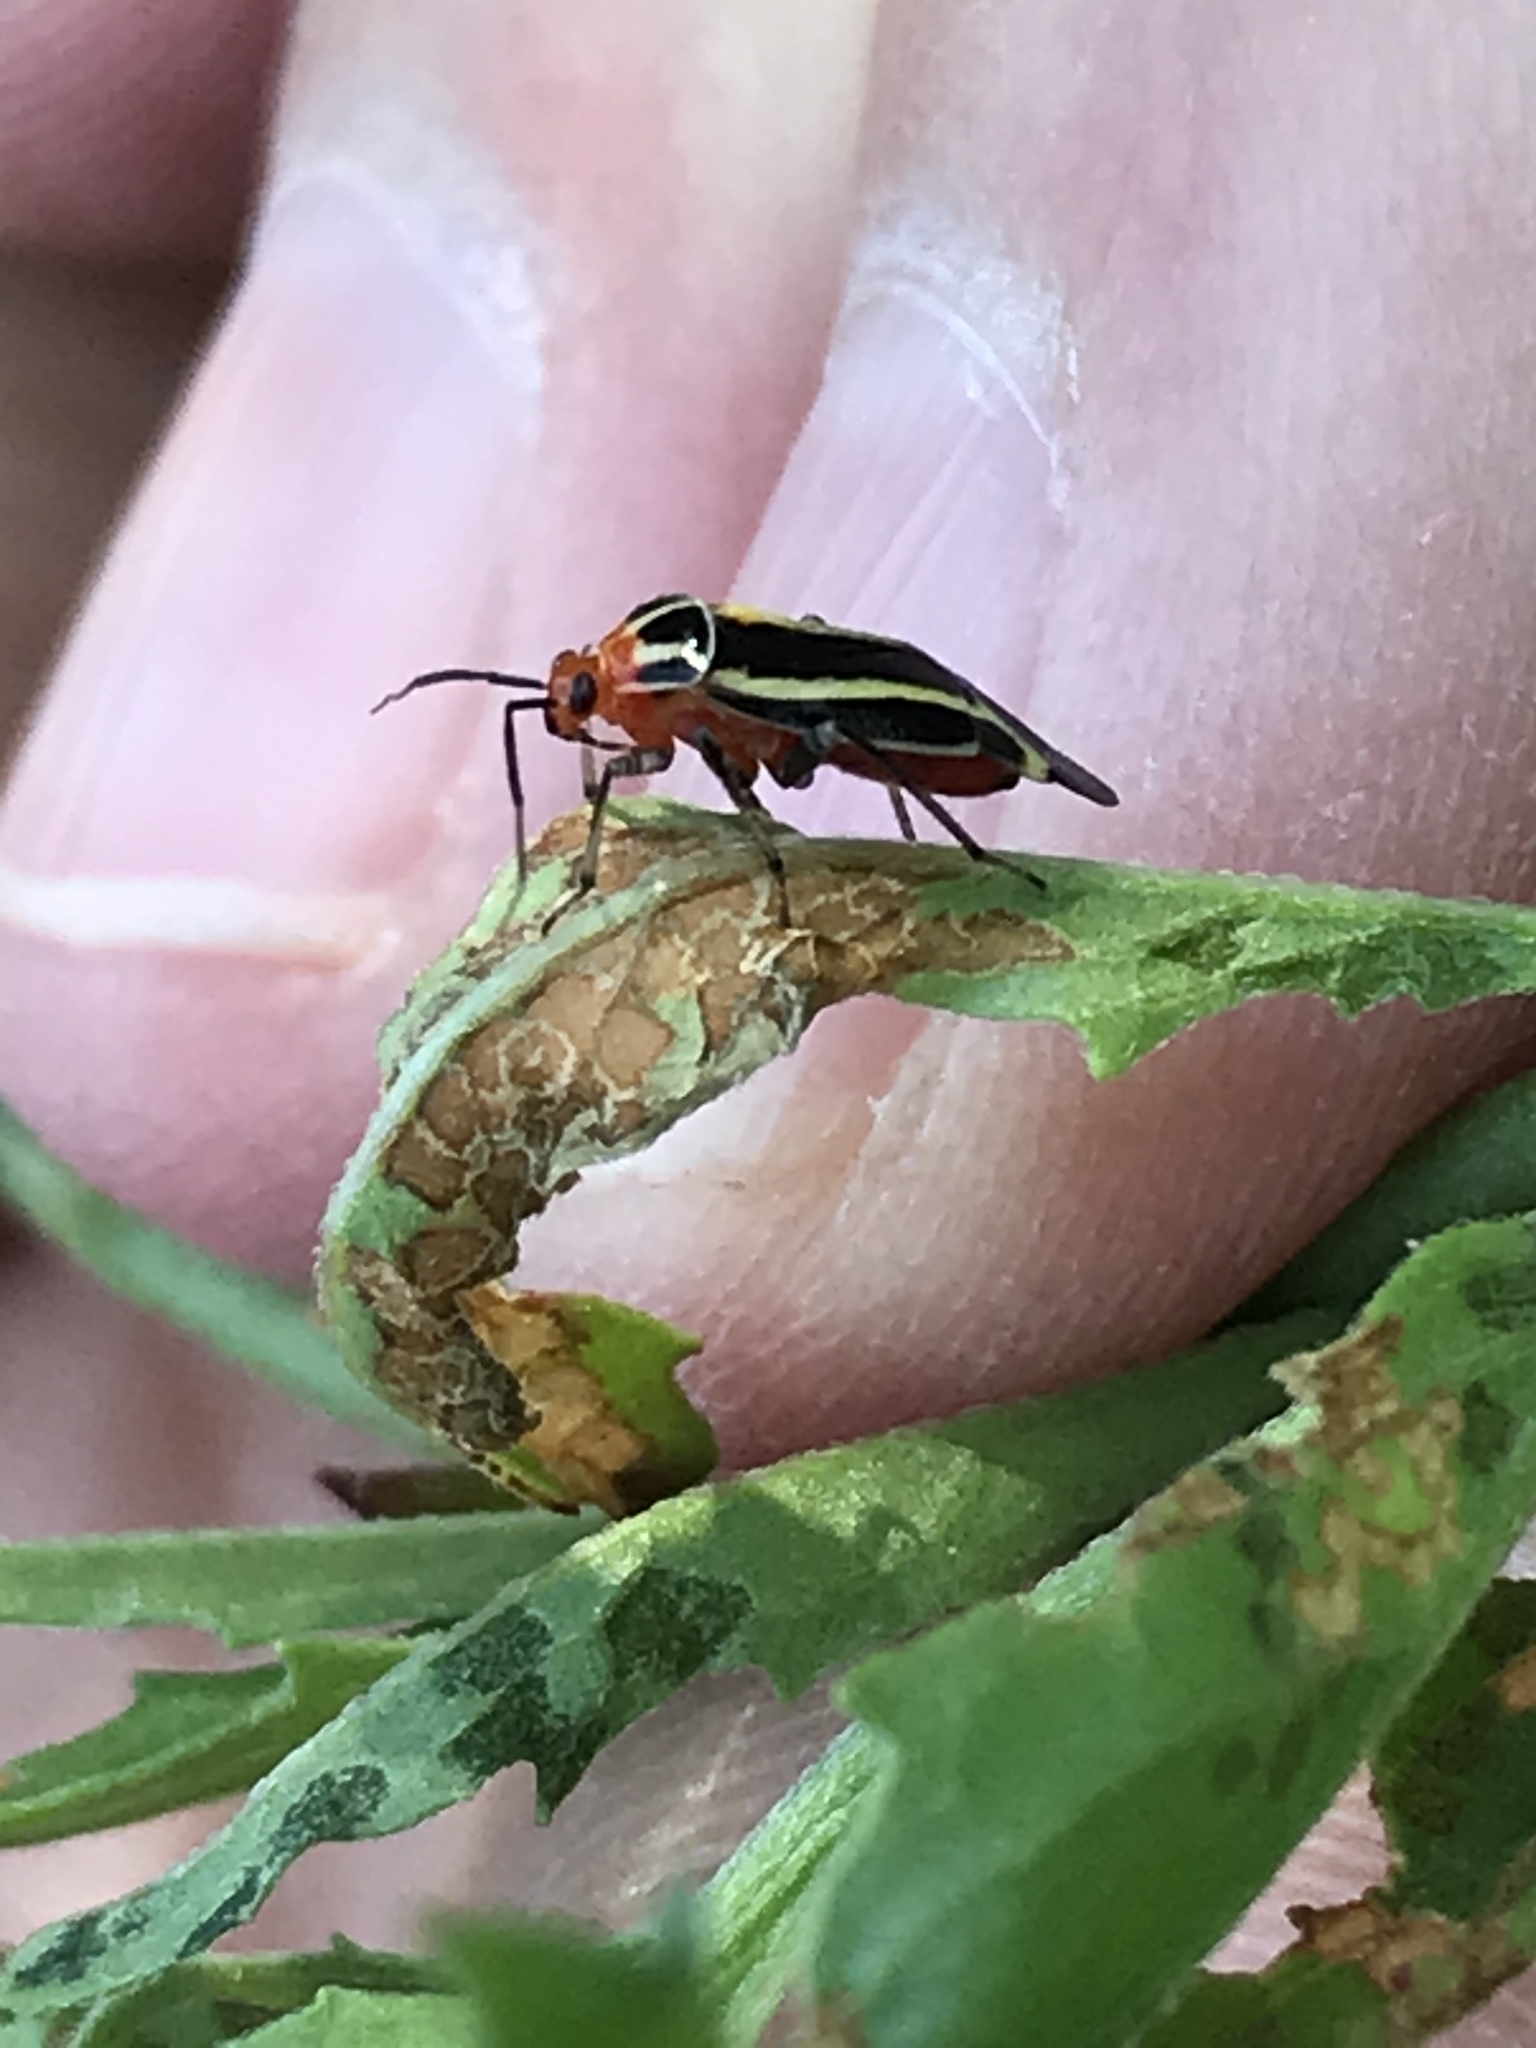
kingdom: Animalia
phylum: Arthropoda
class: Insecta
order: Hemiptera
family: Miridae
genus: Poecilocapsus
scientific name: Poecilocapsus lineatus
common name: Four-lined plant bug
